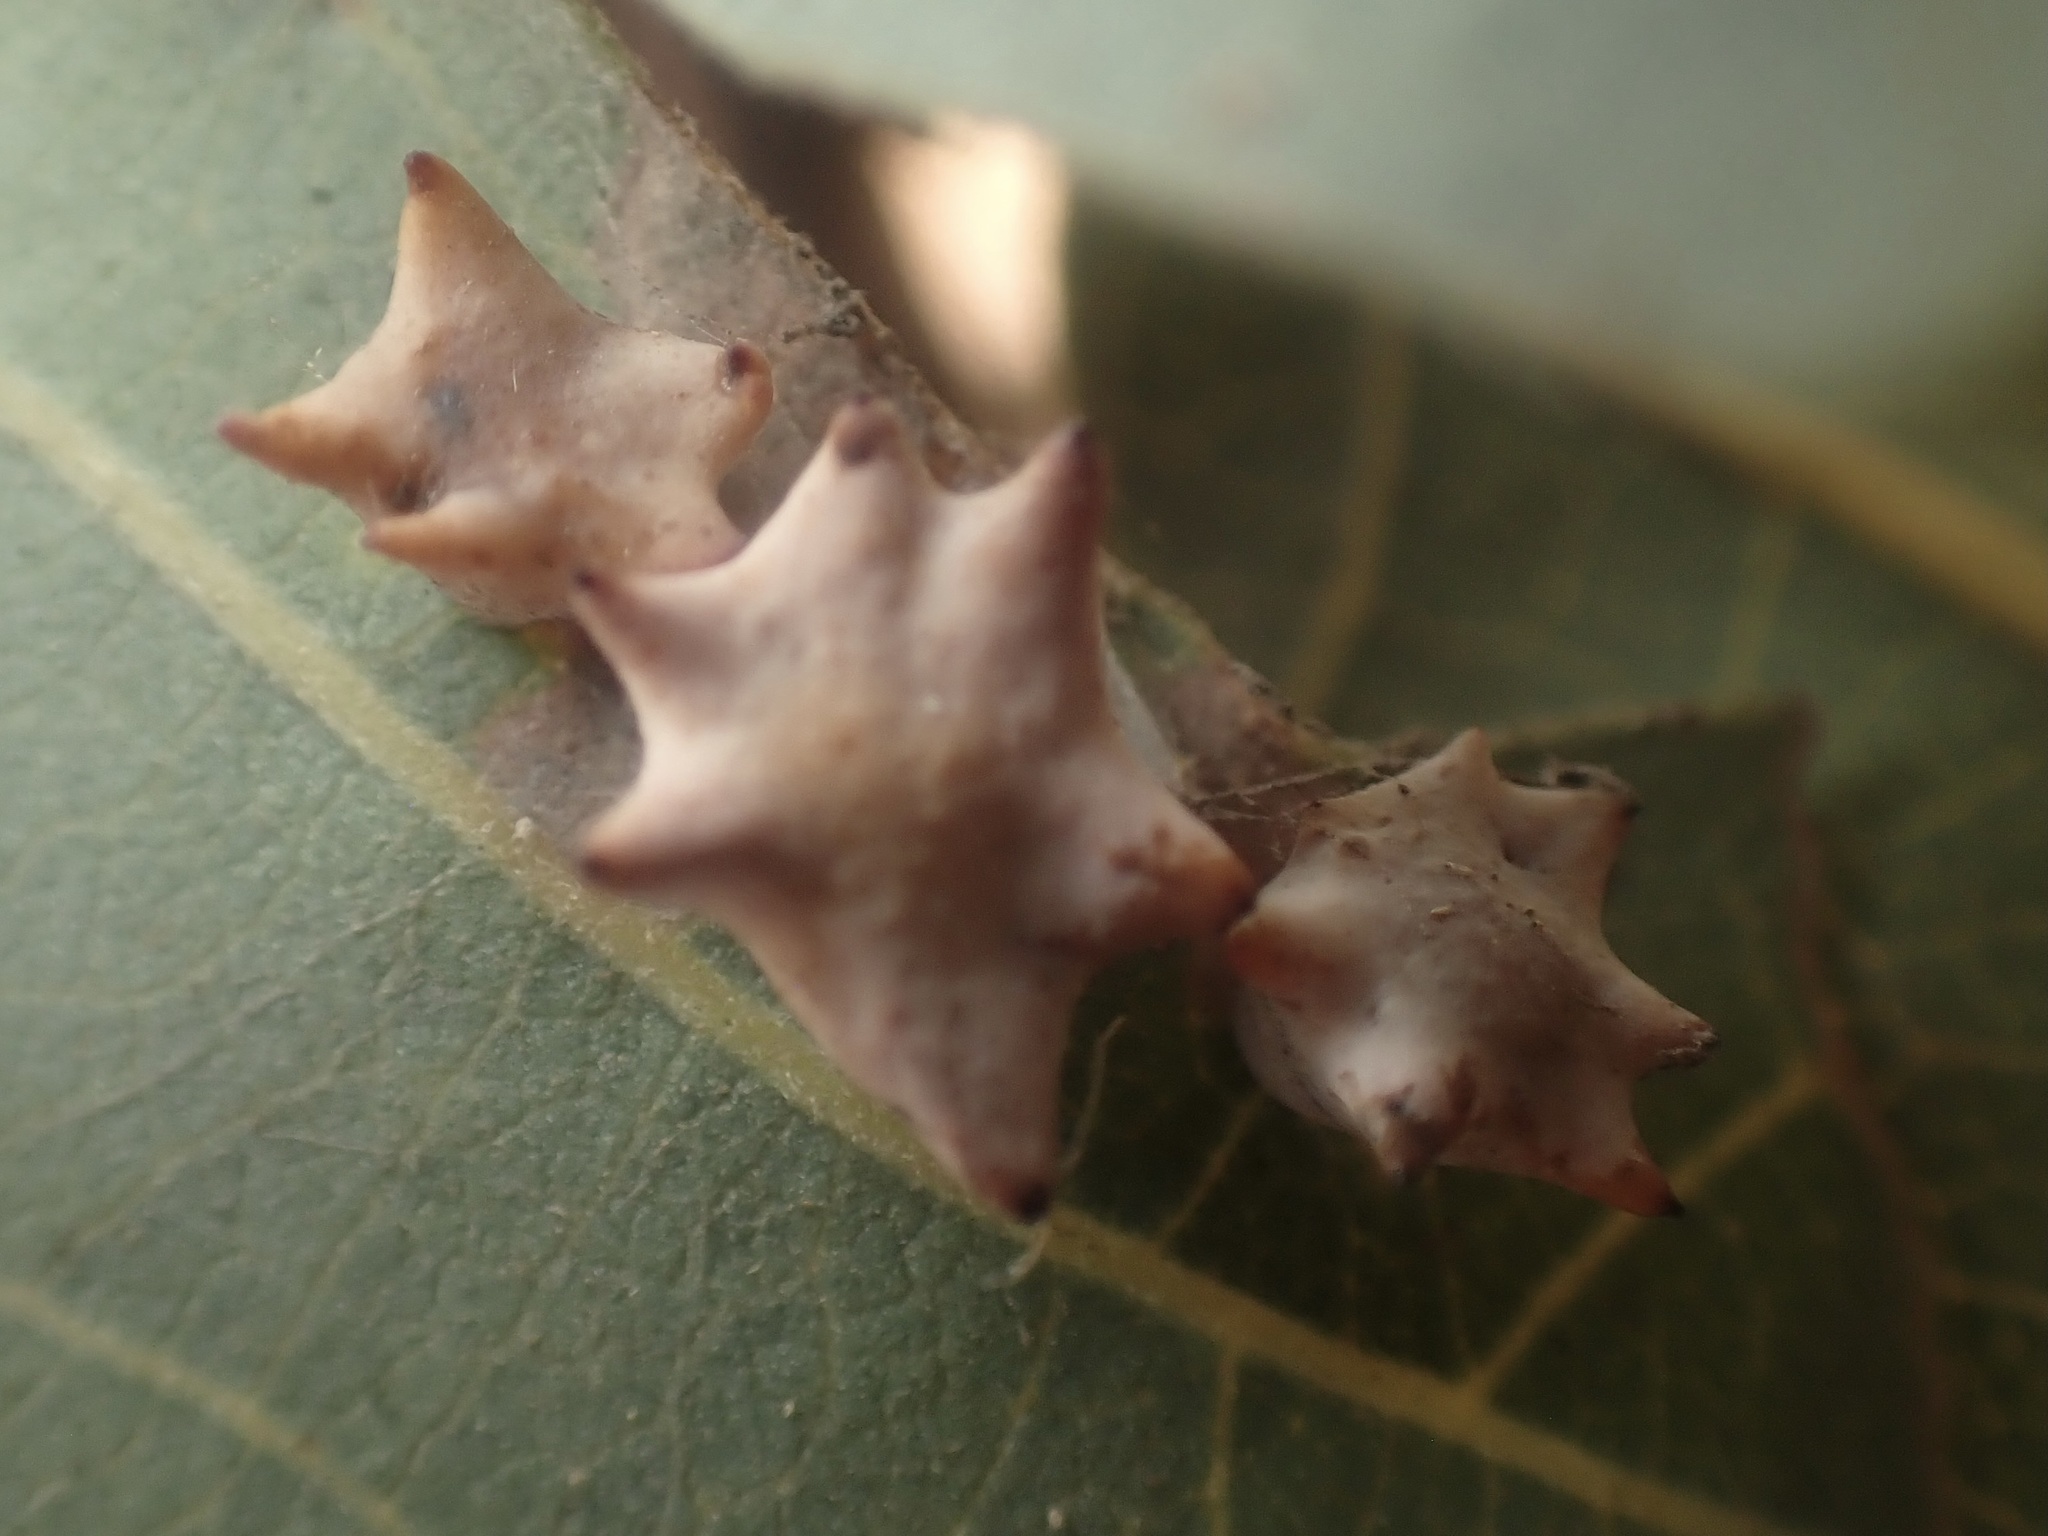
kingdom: Animalia
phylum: Arthropoda
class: Insecta
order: Hymenoptera
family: Cynipidae
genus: Cynips
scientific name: Cynips douglasi
